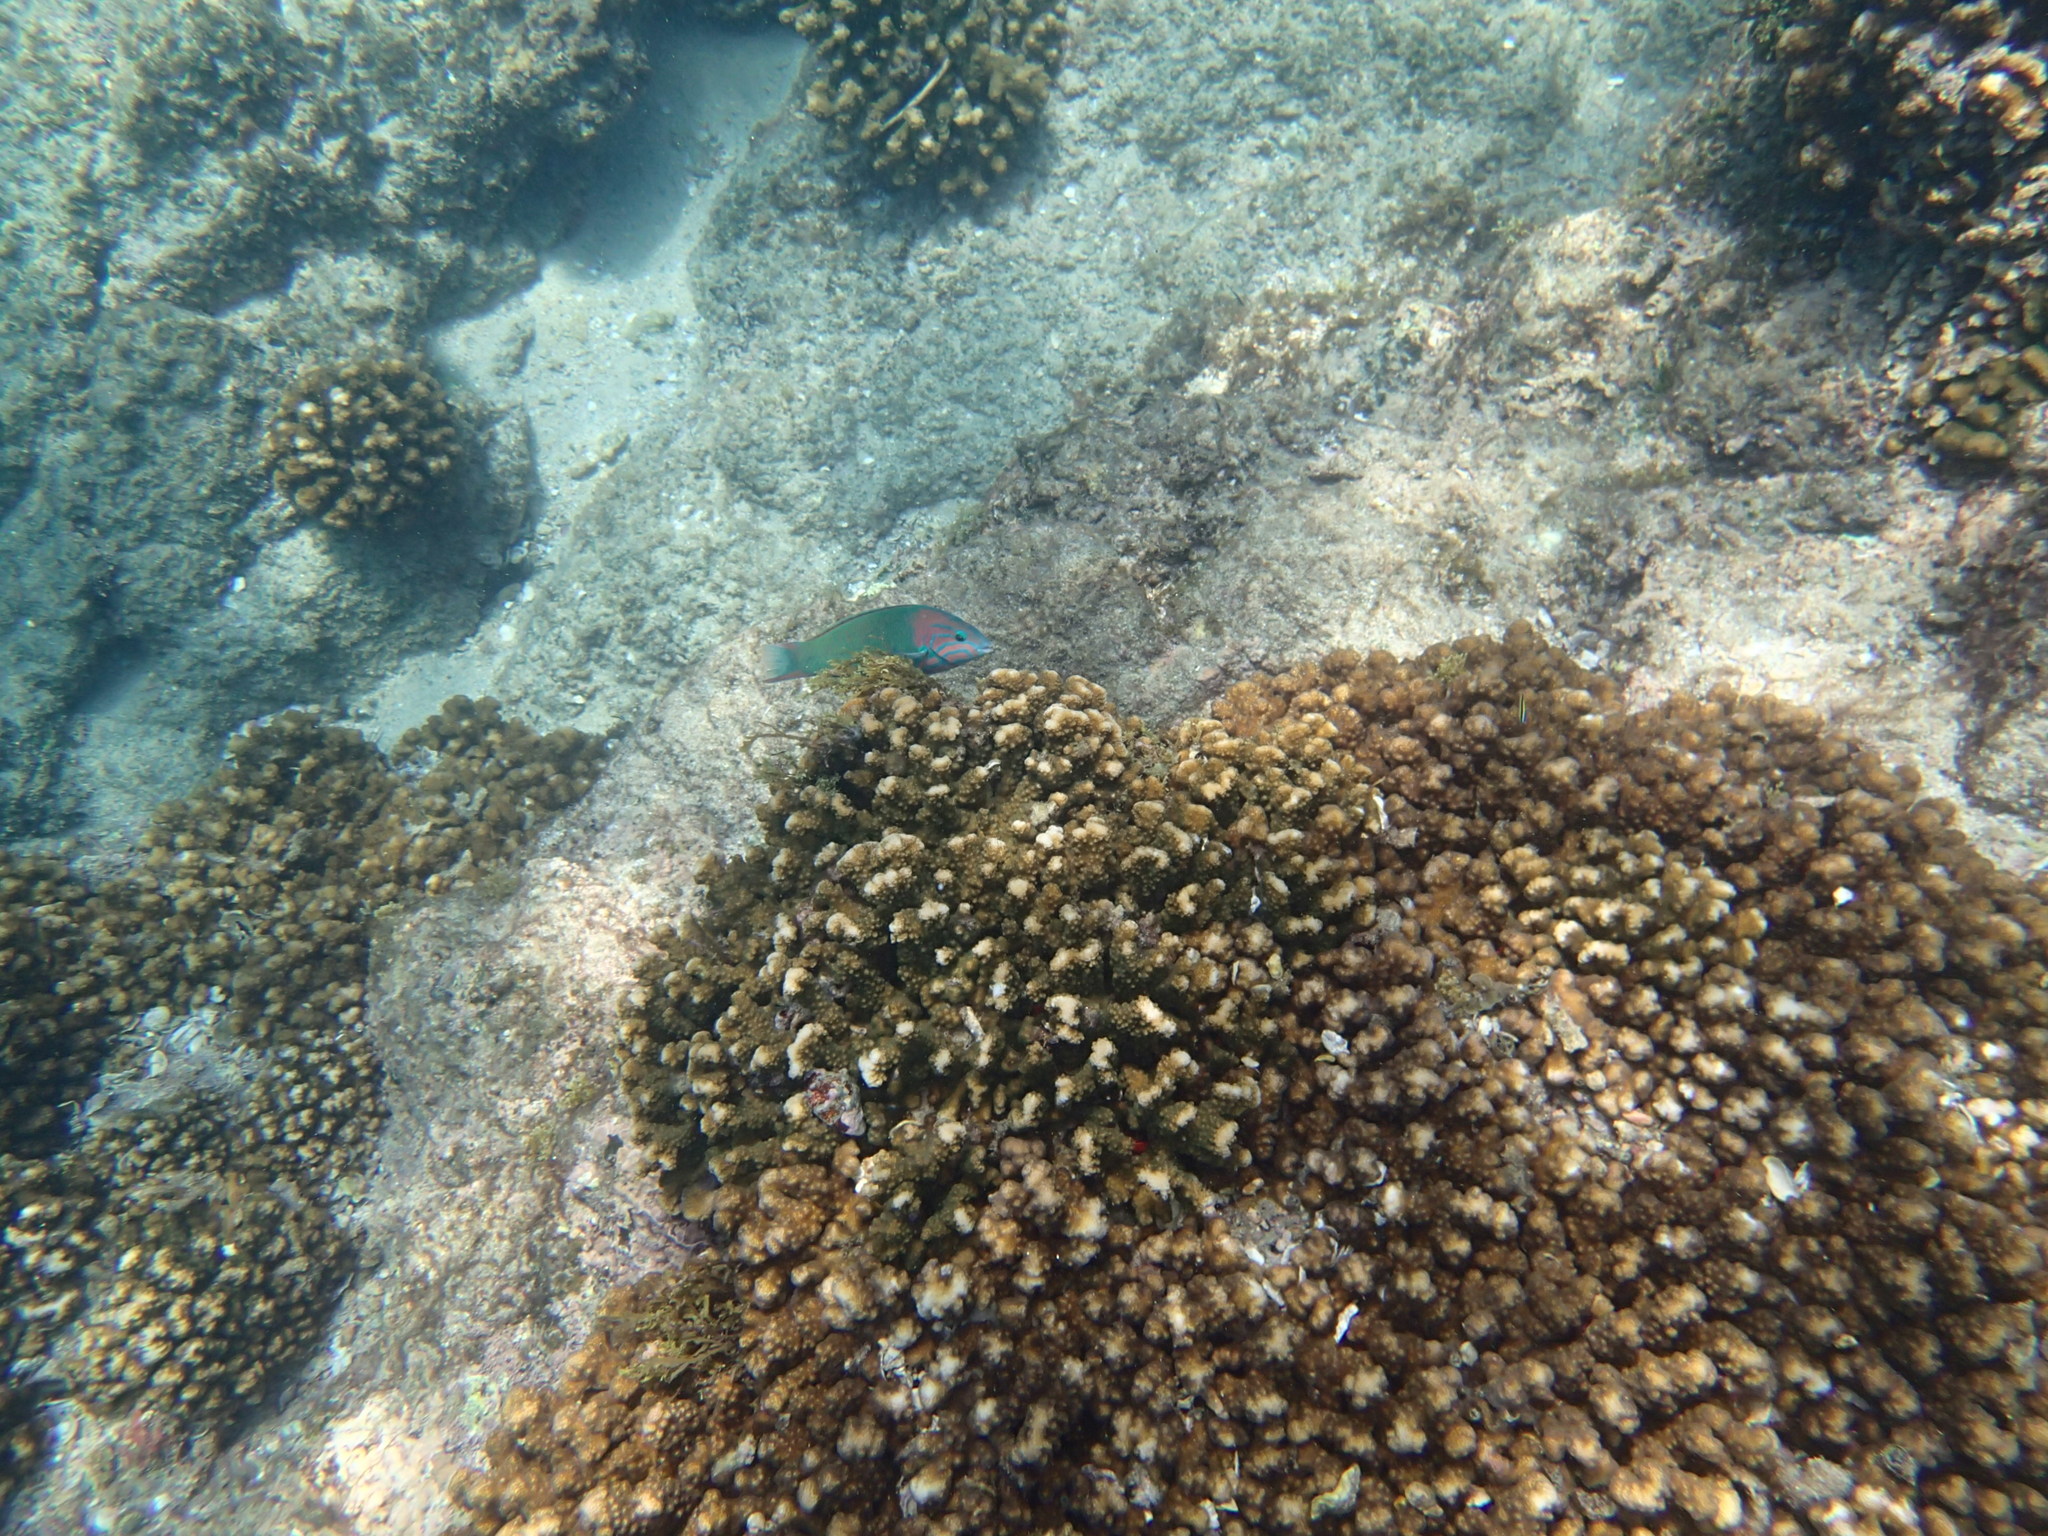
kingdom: Animalia
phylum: Chordata
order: Perciformes
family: Labridae
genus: Thalassoma
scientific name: Thalassoma grammaticum
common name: Sunset wrasse
